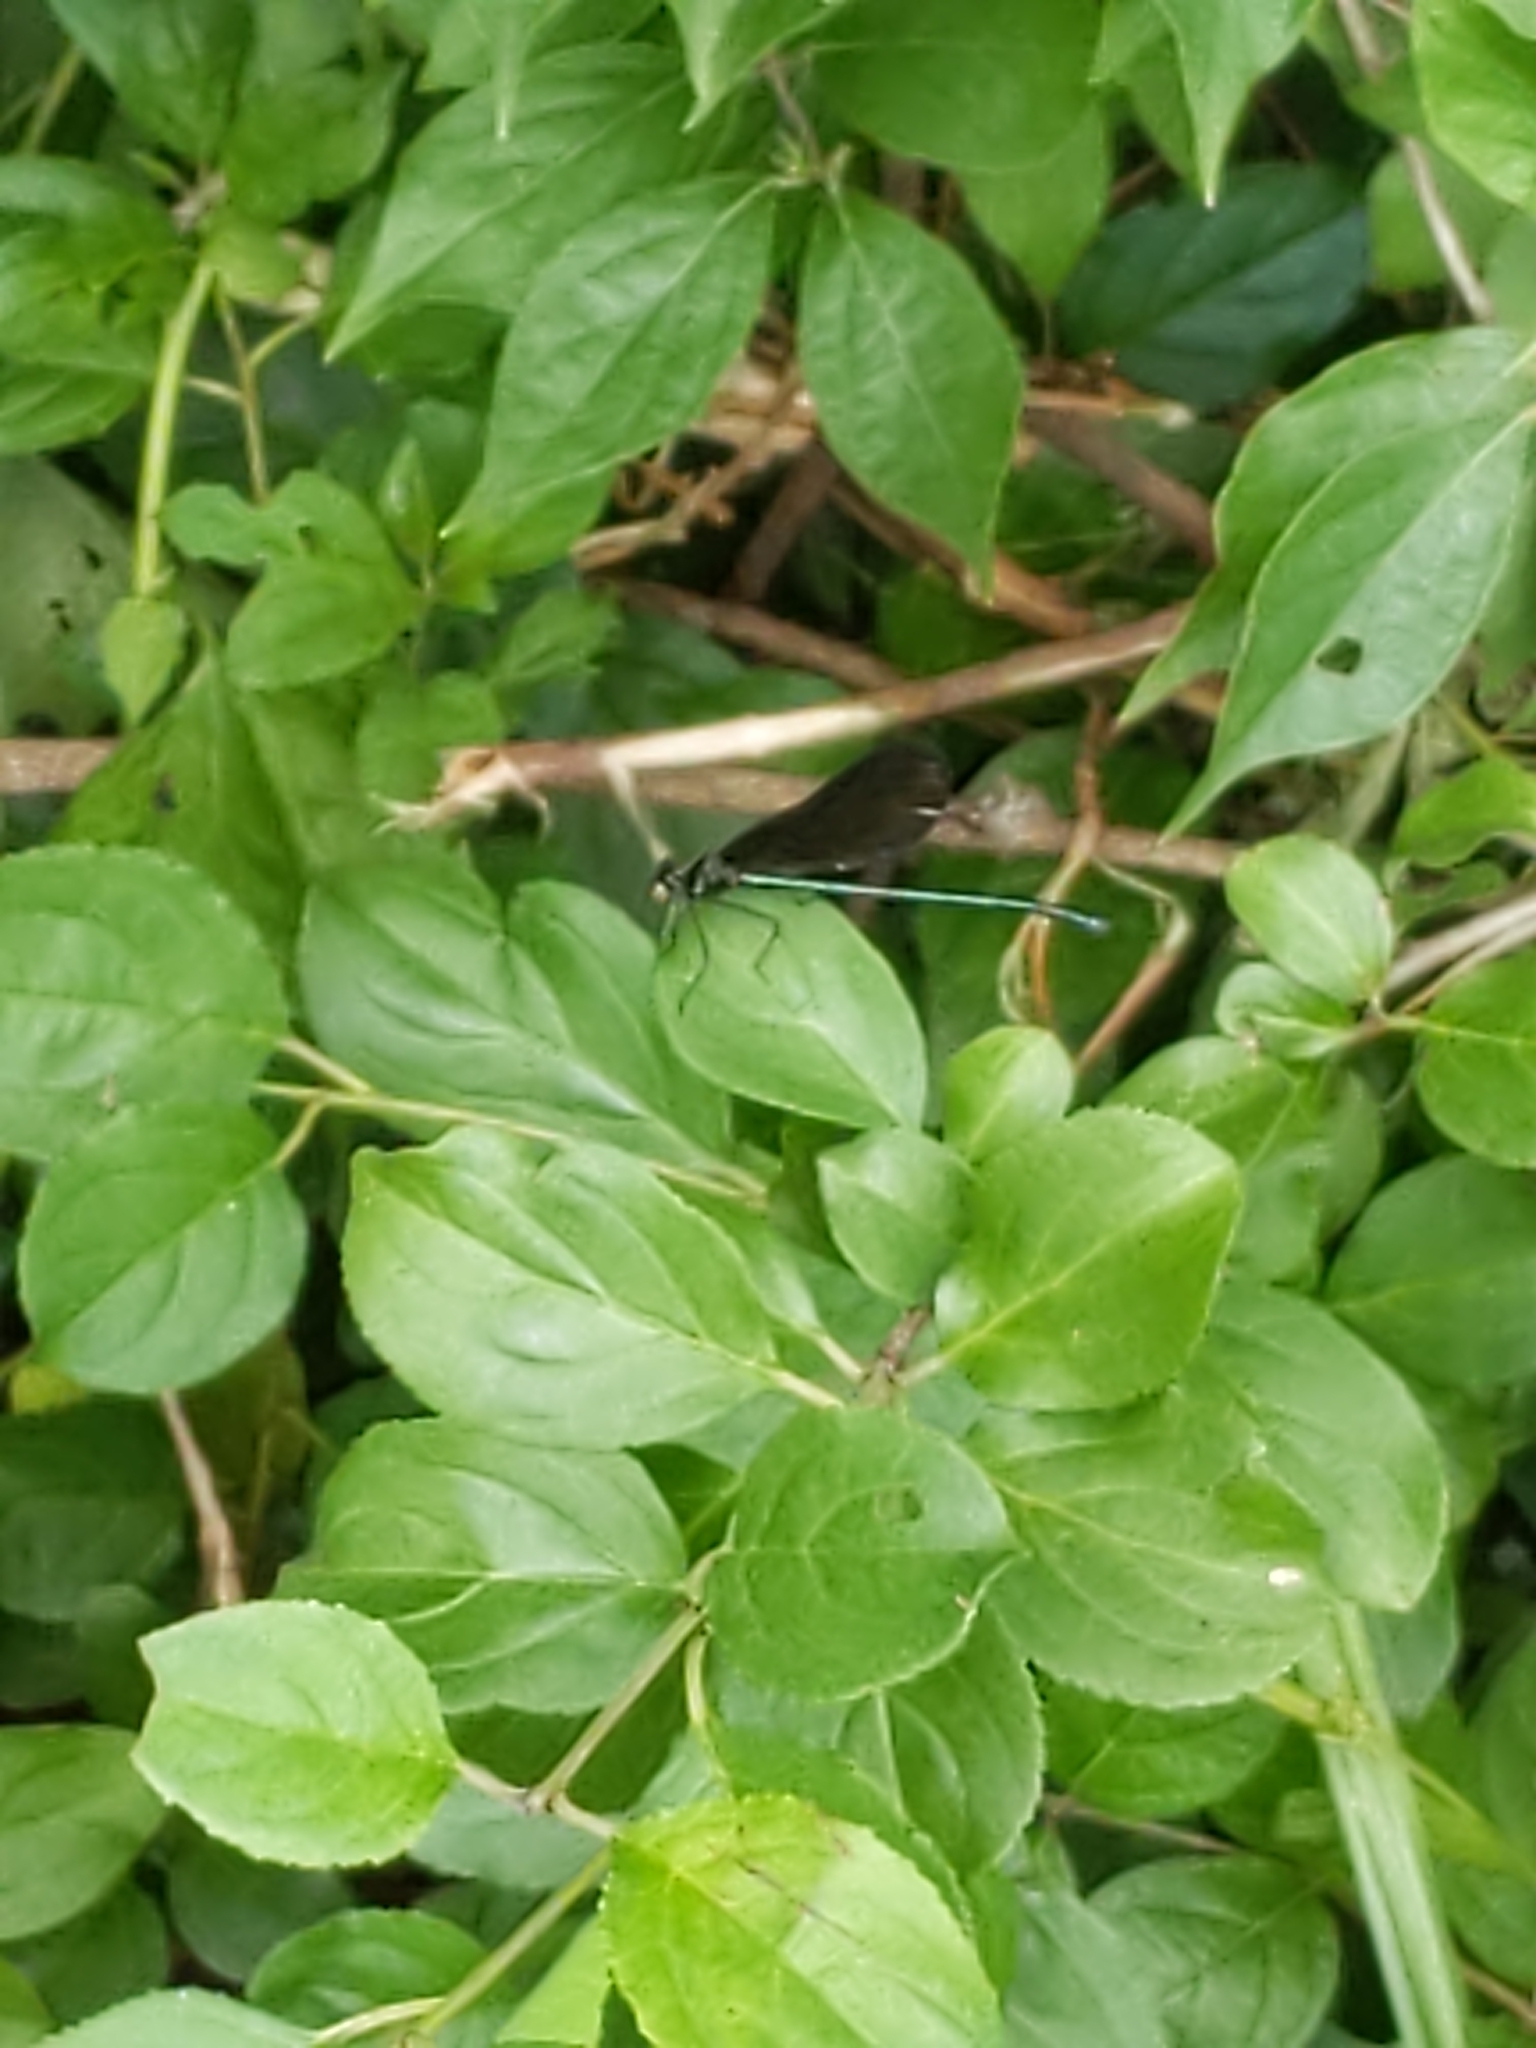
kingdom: Animalia
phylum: Arthropoda
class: Insecta
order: Odonata
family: Calopterygidae
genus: Calopteryx
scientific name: Calopteryx maculata
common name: Ebony jewelwing
